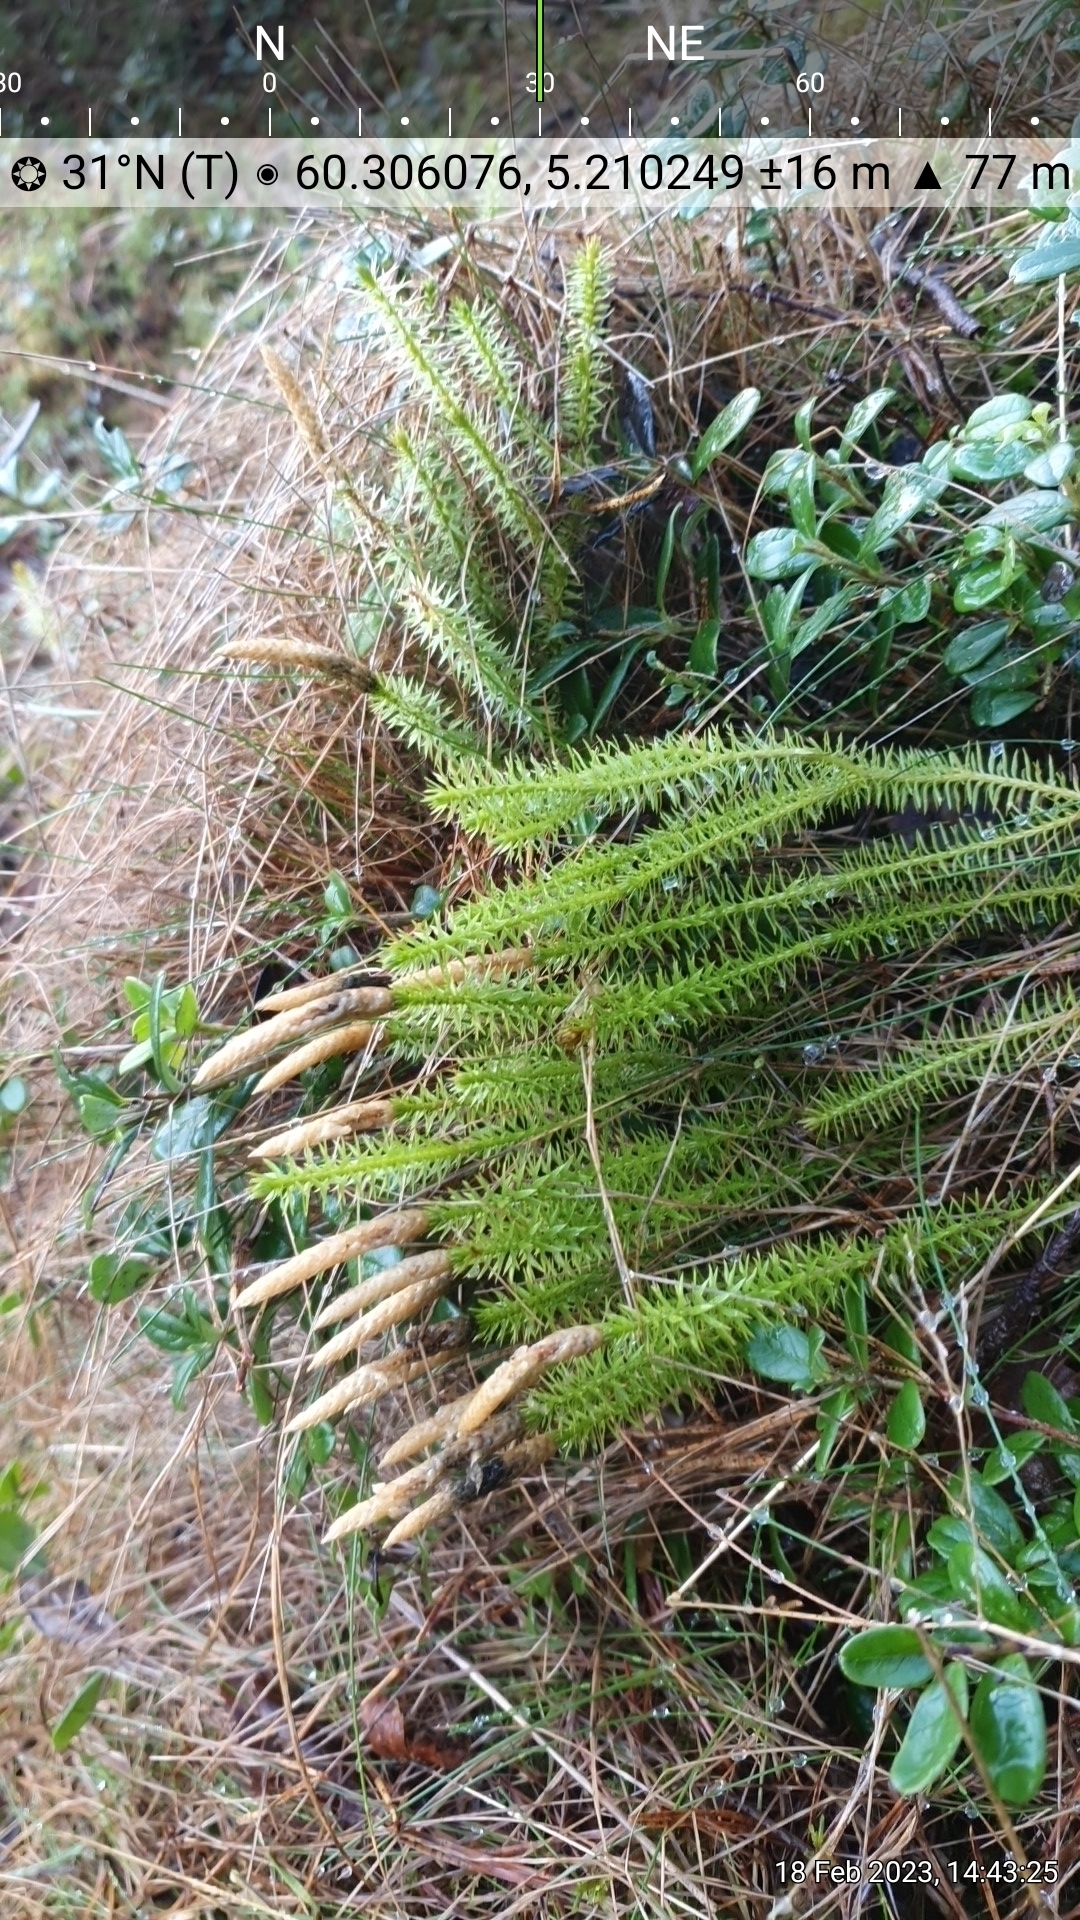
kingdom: Plantae
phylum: Tracheophyta
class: Lycopodiopsida
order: Lycopodiales
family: Lycopodiaceae
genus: Spinulum
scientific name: Spinulum annotinum
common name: Interrupted club-moss
